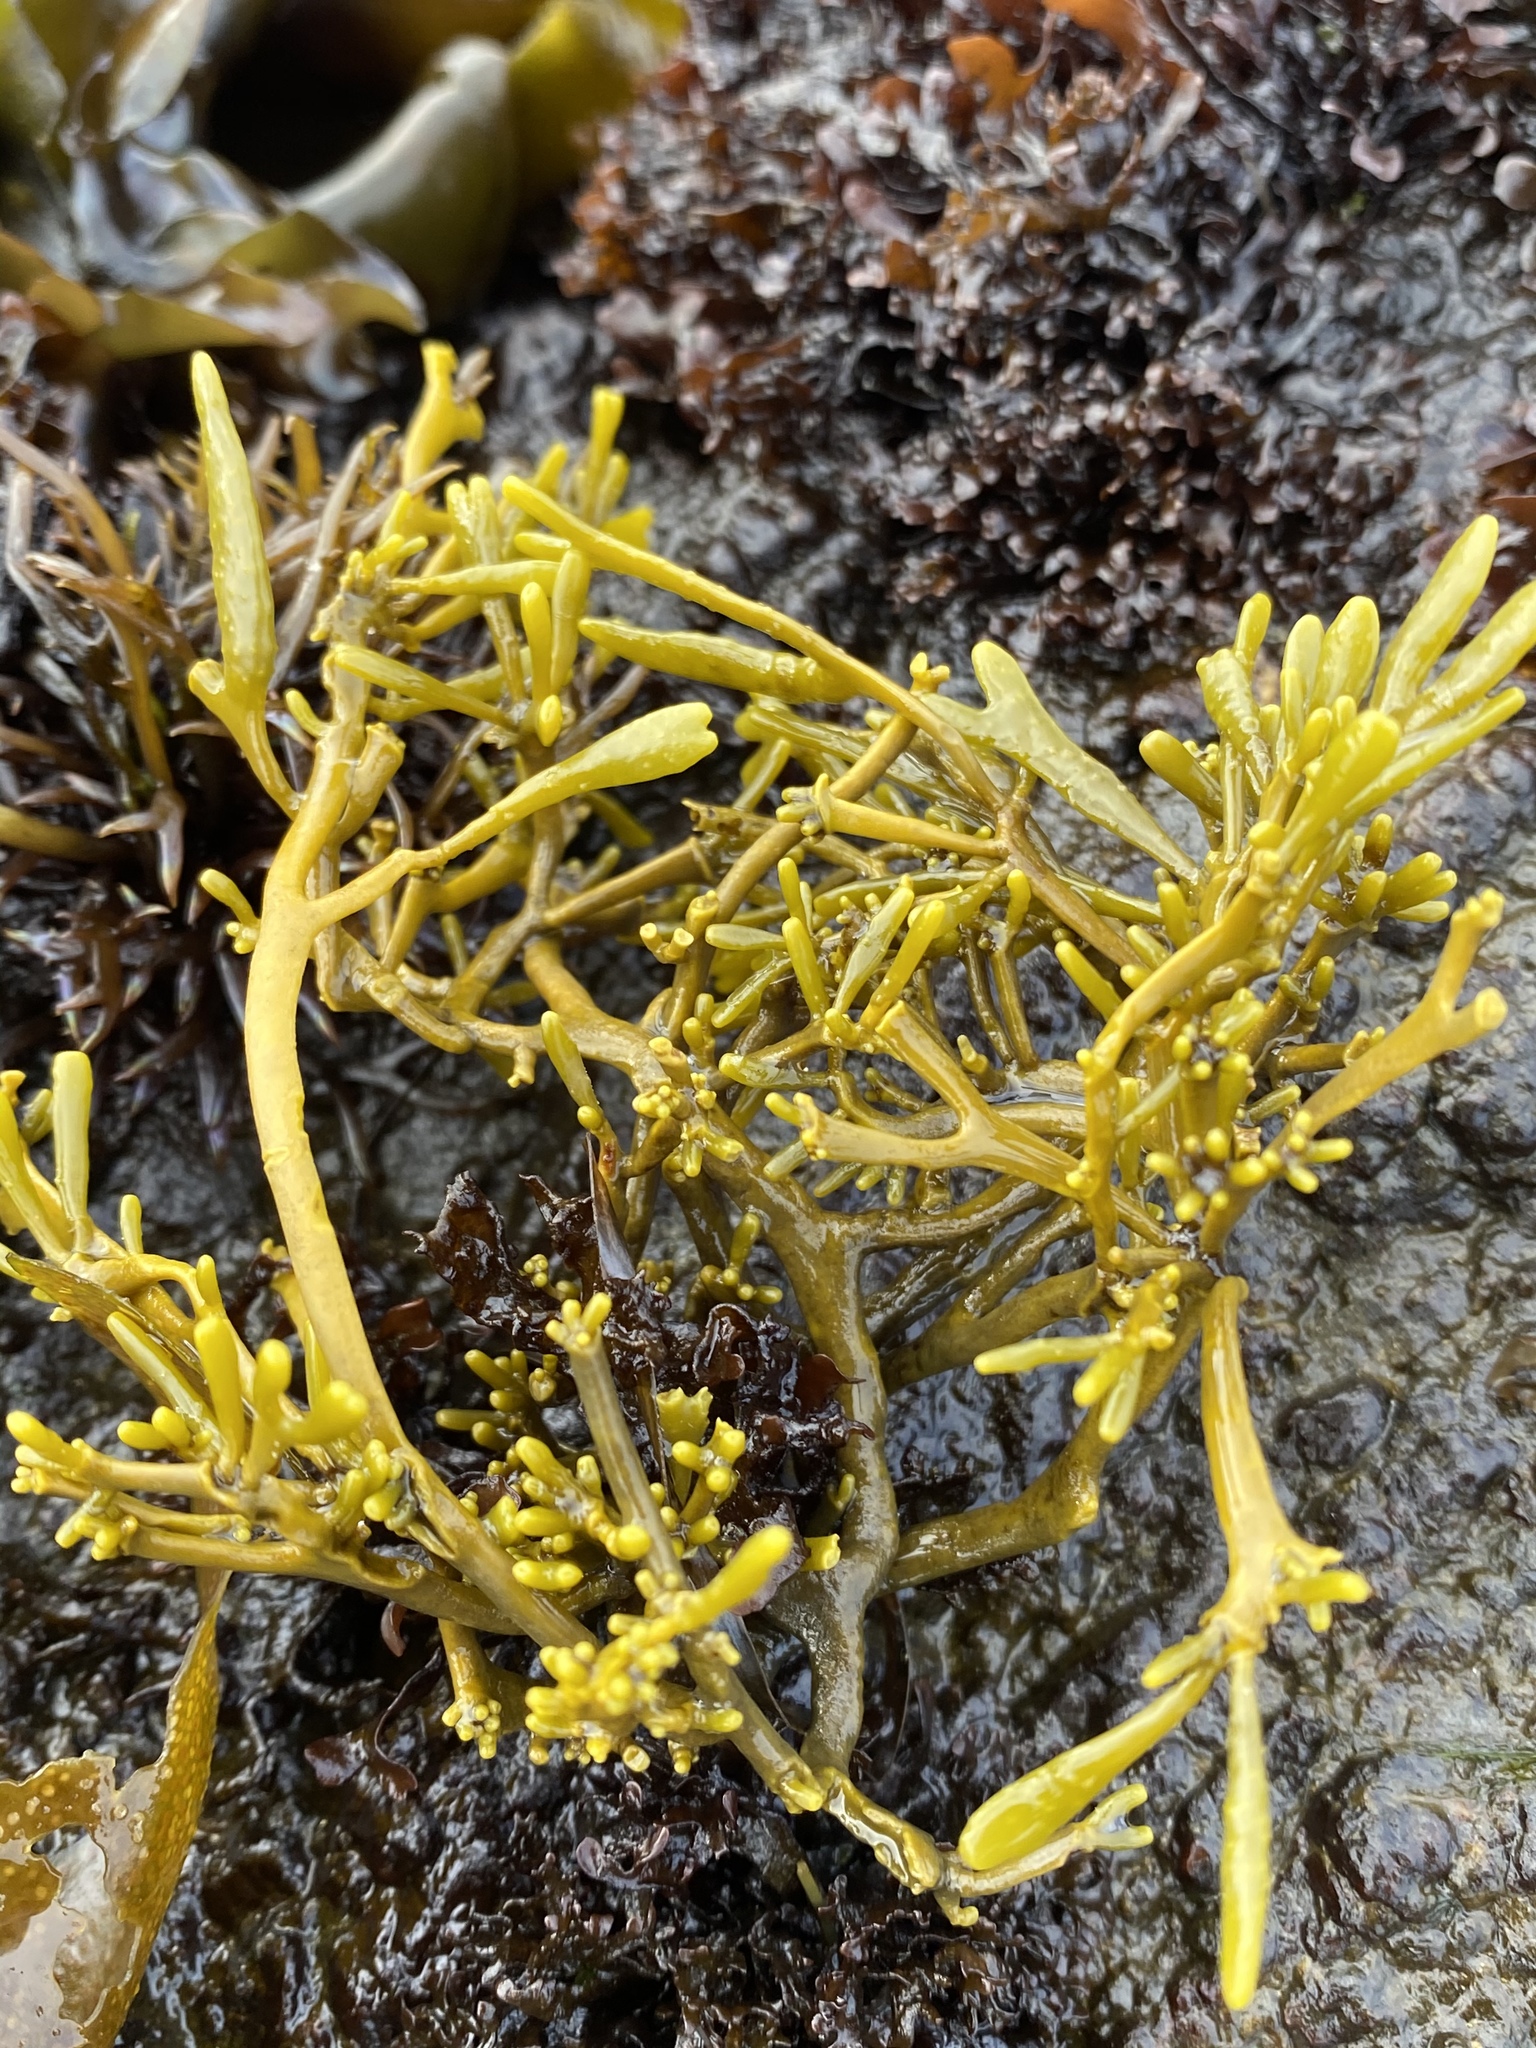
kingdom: Chromista
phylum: Ochrophyta
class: Phaeophyceae
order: Fucales
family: Fucaceae
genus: Silvetia
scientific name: Silvetia
